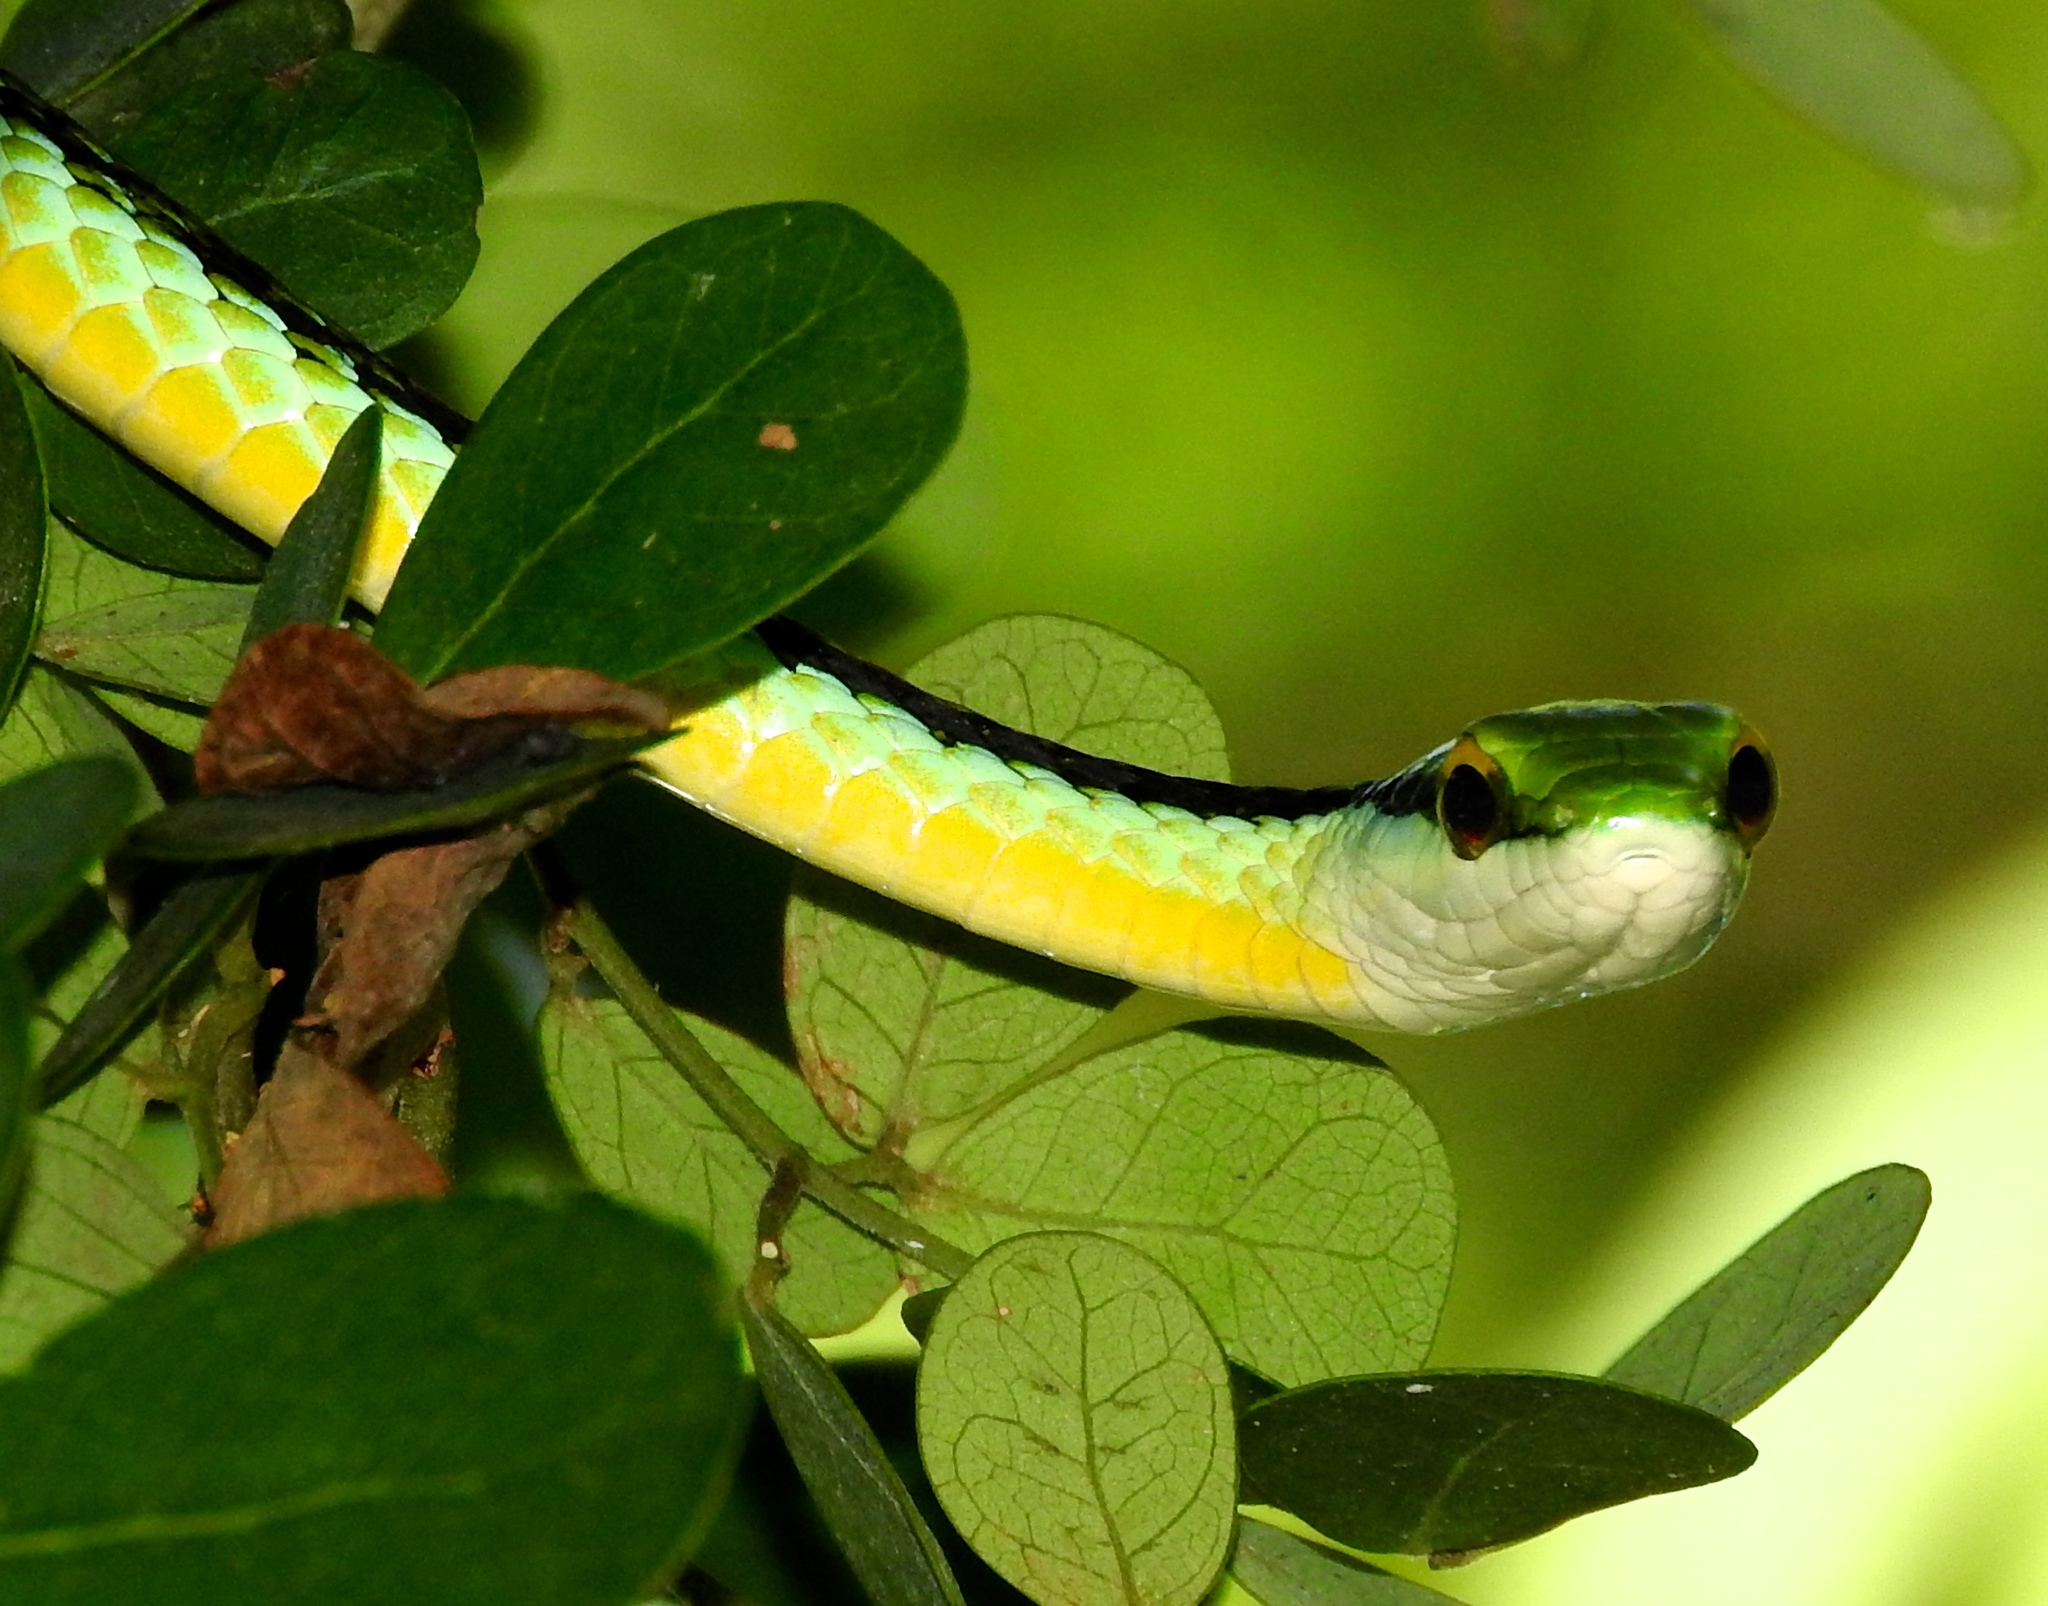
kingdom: Animalia
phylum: Chordata
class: Squamata
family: Colubridae
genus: Leptophis
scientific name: Leptophis diplotropis
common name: Pacific coast parrot snake
